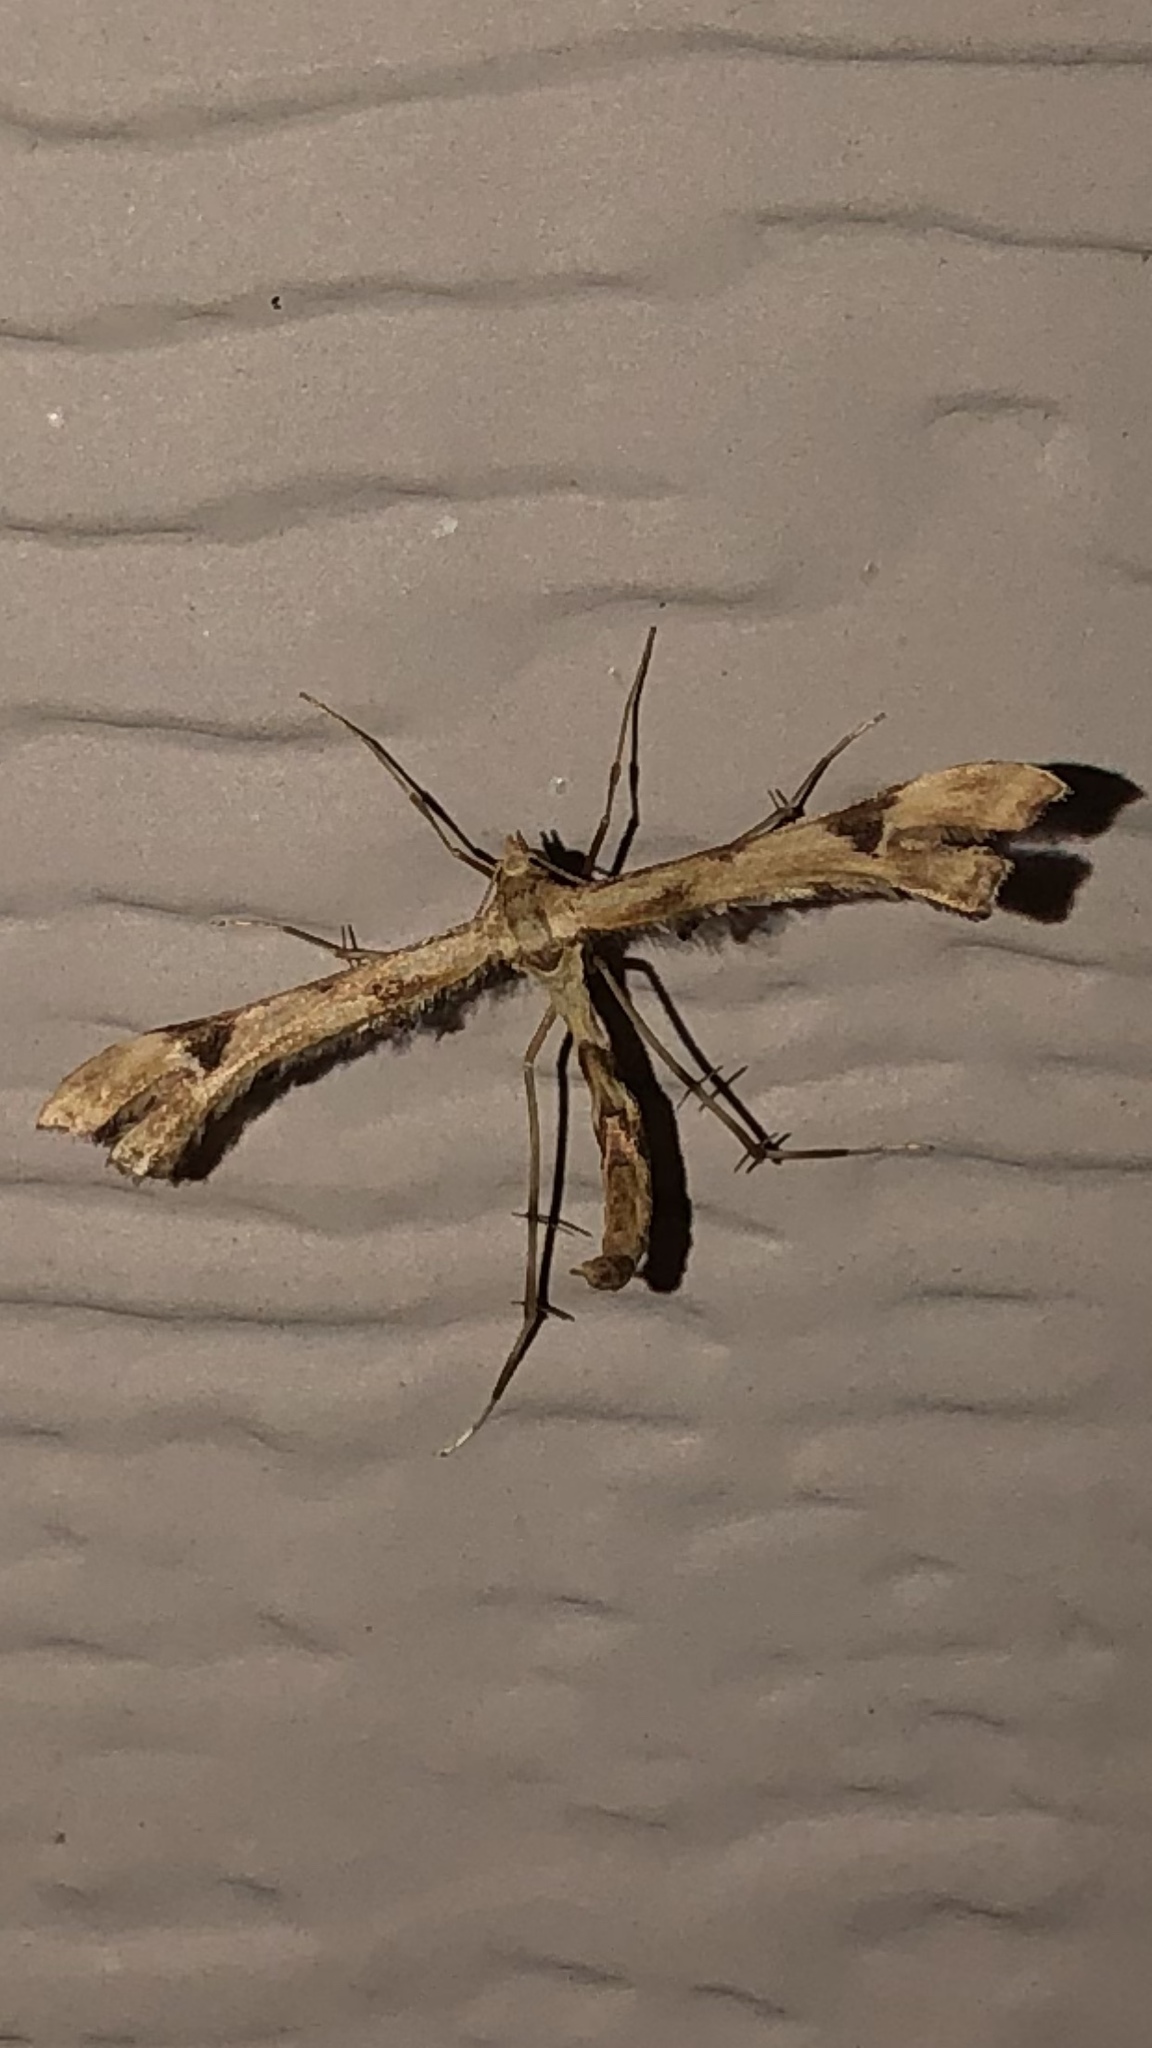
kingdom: Animalia
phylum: Arthropoda
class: Insecta
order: Lepidoptera
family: Pterophoridae
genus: Platyptilia
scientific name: Platyptilia carduidactylus
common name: Artichoke plume moth
